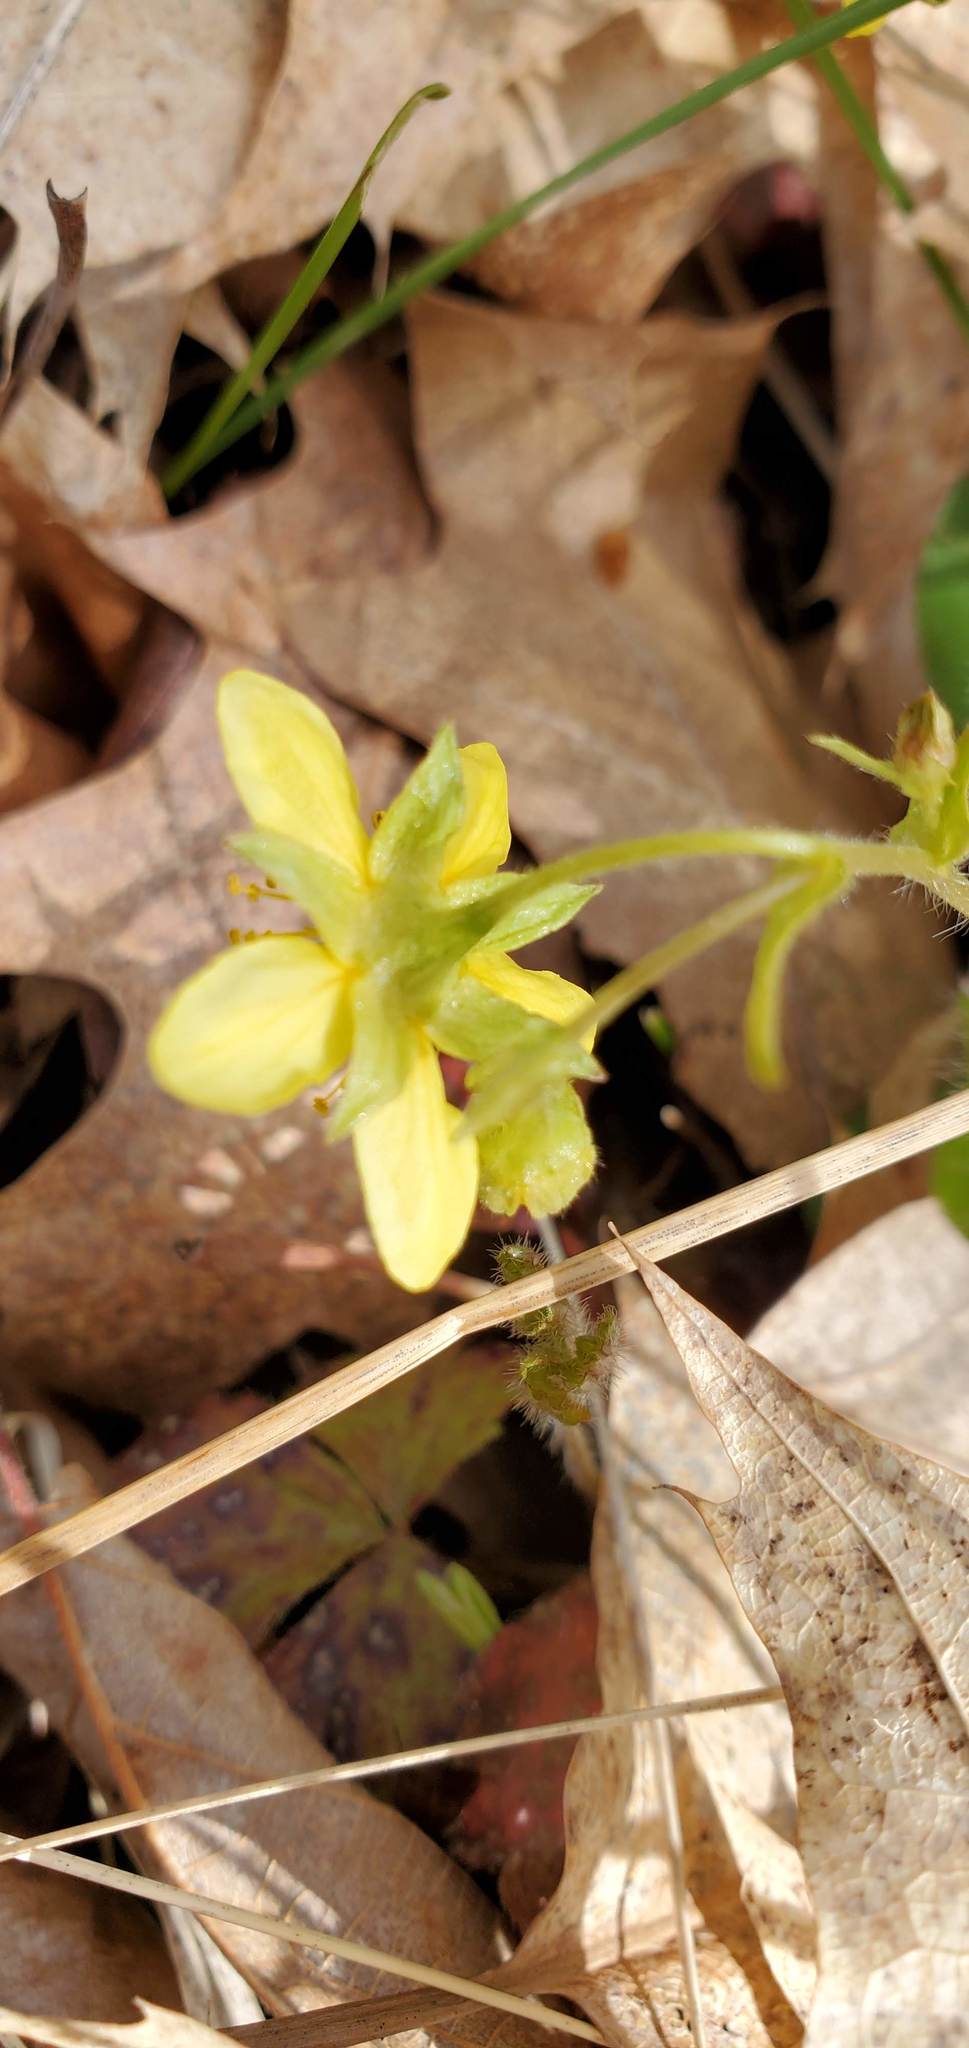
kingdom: Plantae
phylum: Tracheophyta
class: Magnoliopsida
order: Rosales
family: Rosaceae
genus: Geum
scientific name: Geum fragarioides
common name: Appalachian barren strawberry
